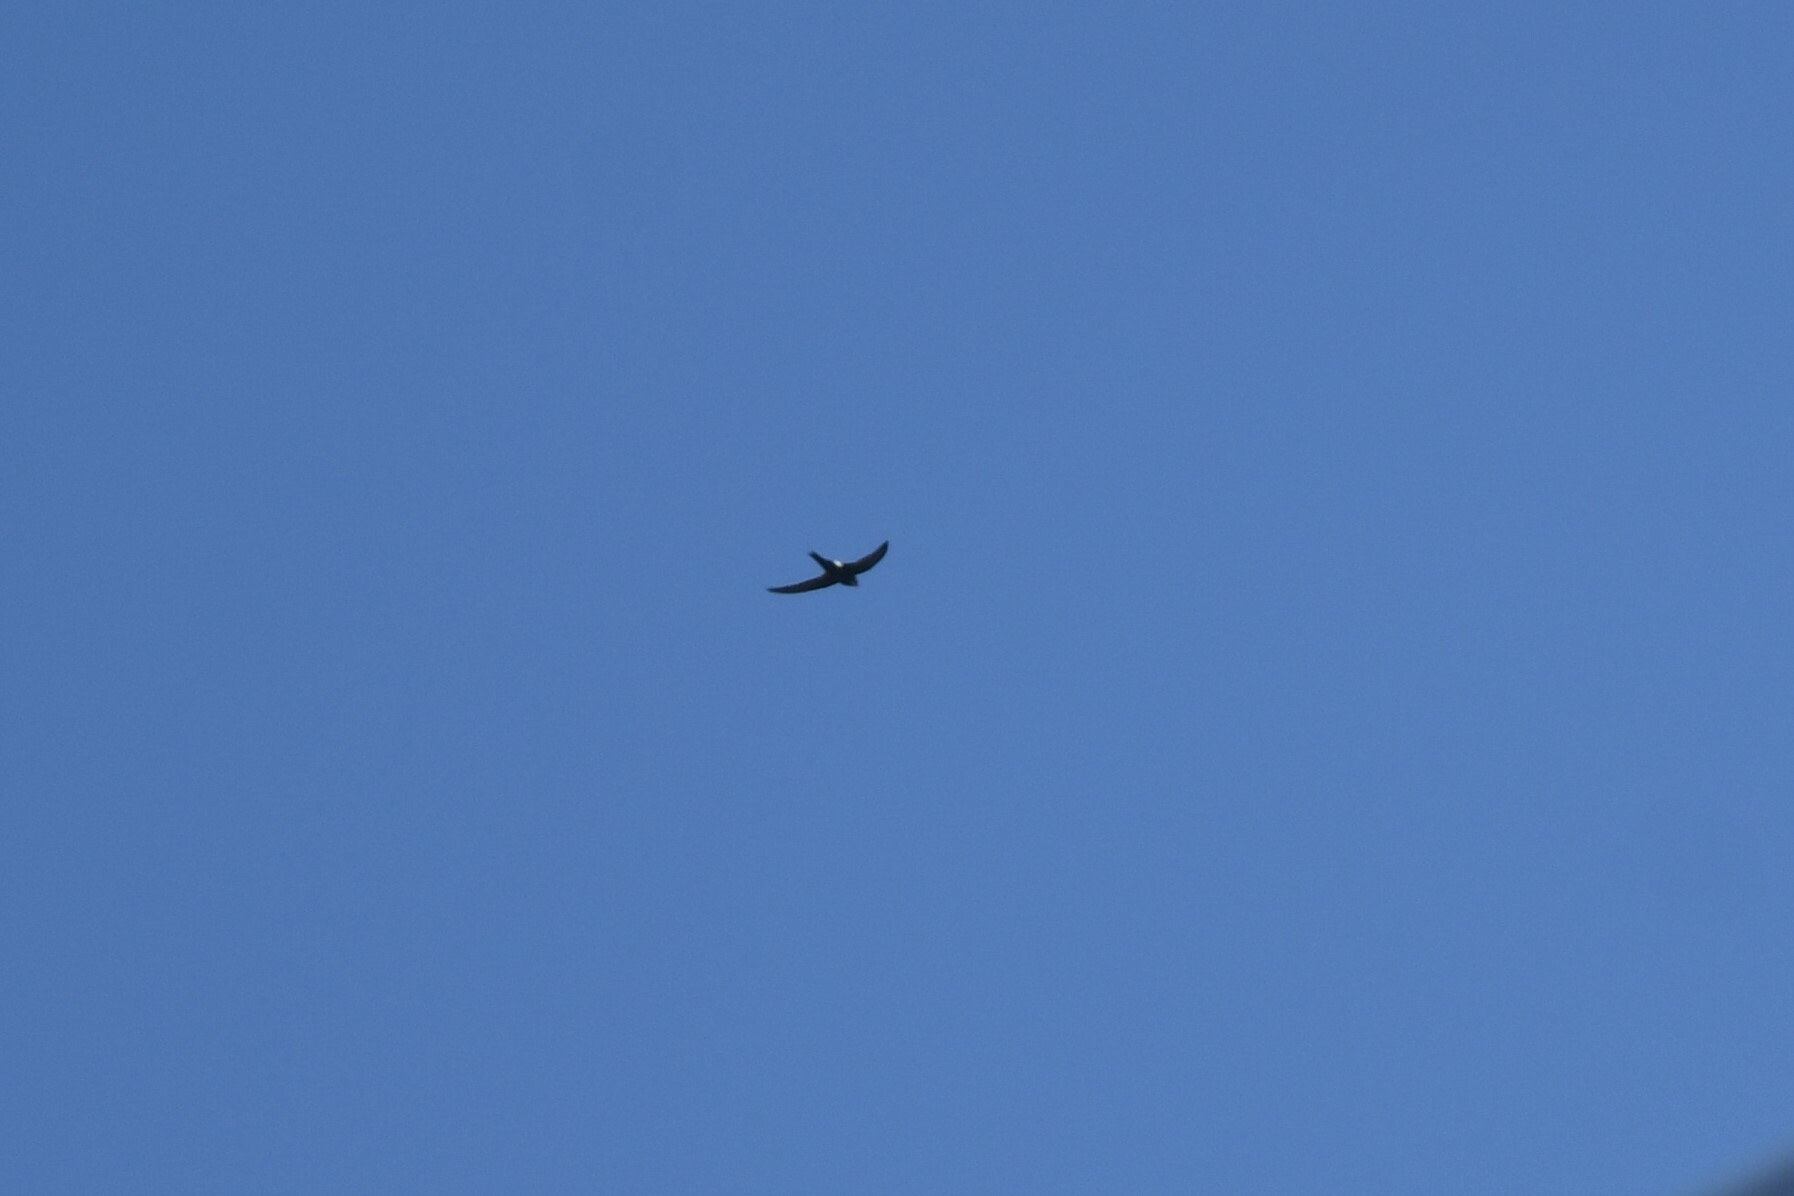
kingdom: Animalia
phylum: Chordata
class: Aves
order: Apodiformes
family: Apodidae
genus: Apus
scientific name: Apus leuconyx
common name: Blyth's swift
